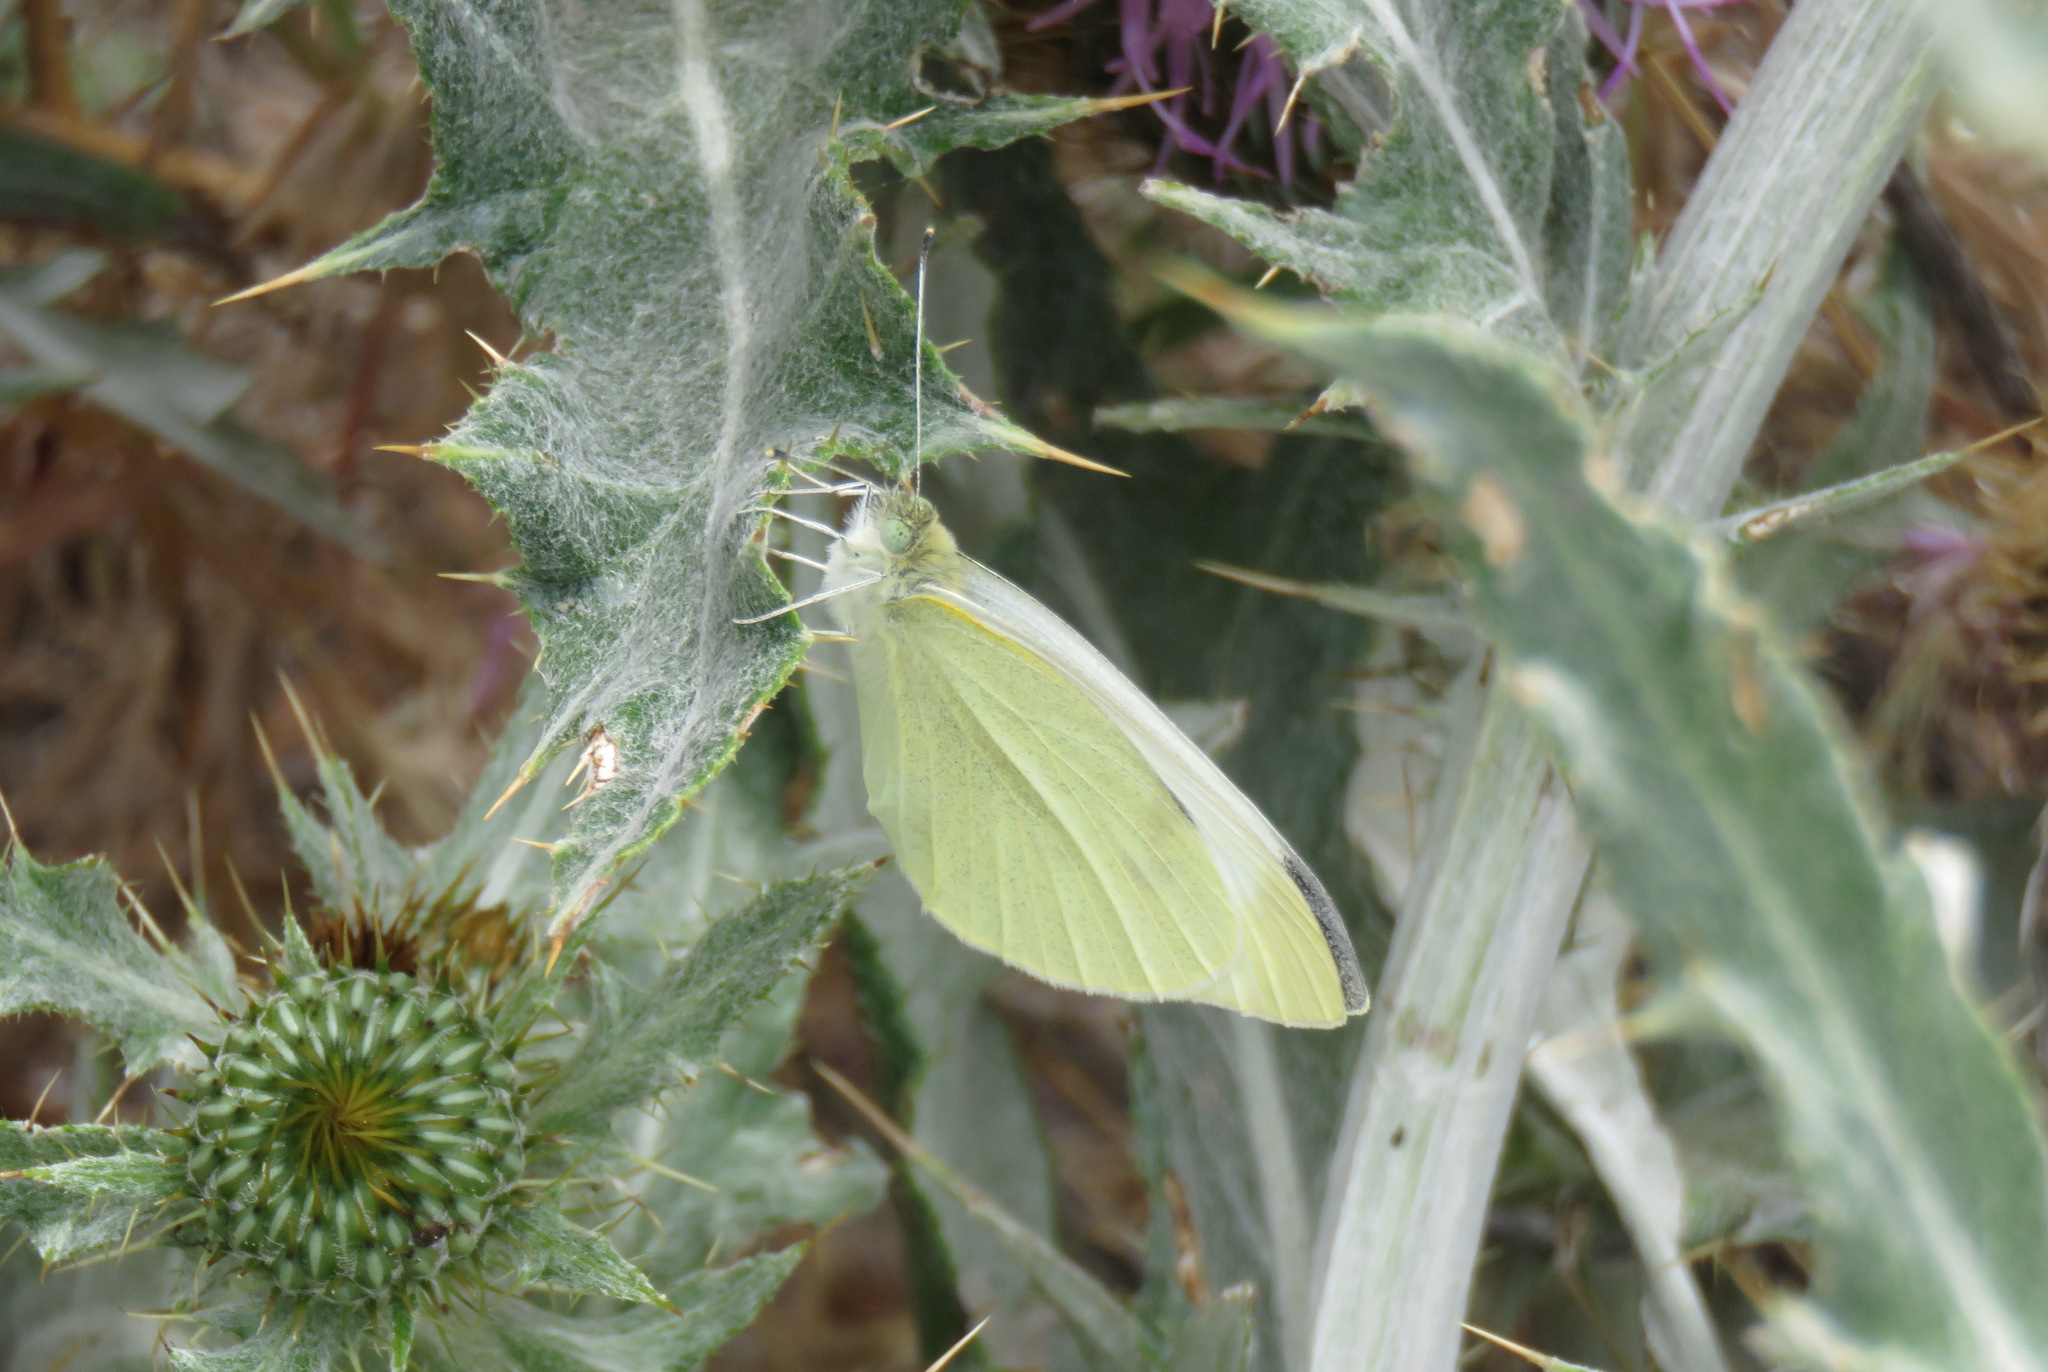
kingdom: Animalia
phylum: Arthropoda
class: Insecta
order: Lepidoptera
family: Pieridae
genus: Pieris
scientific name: Pieris rapae
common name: Small white
